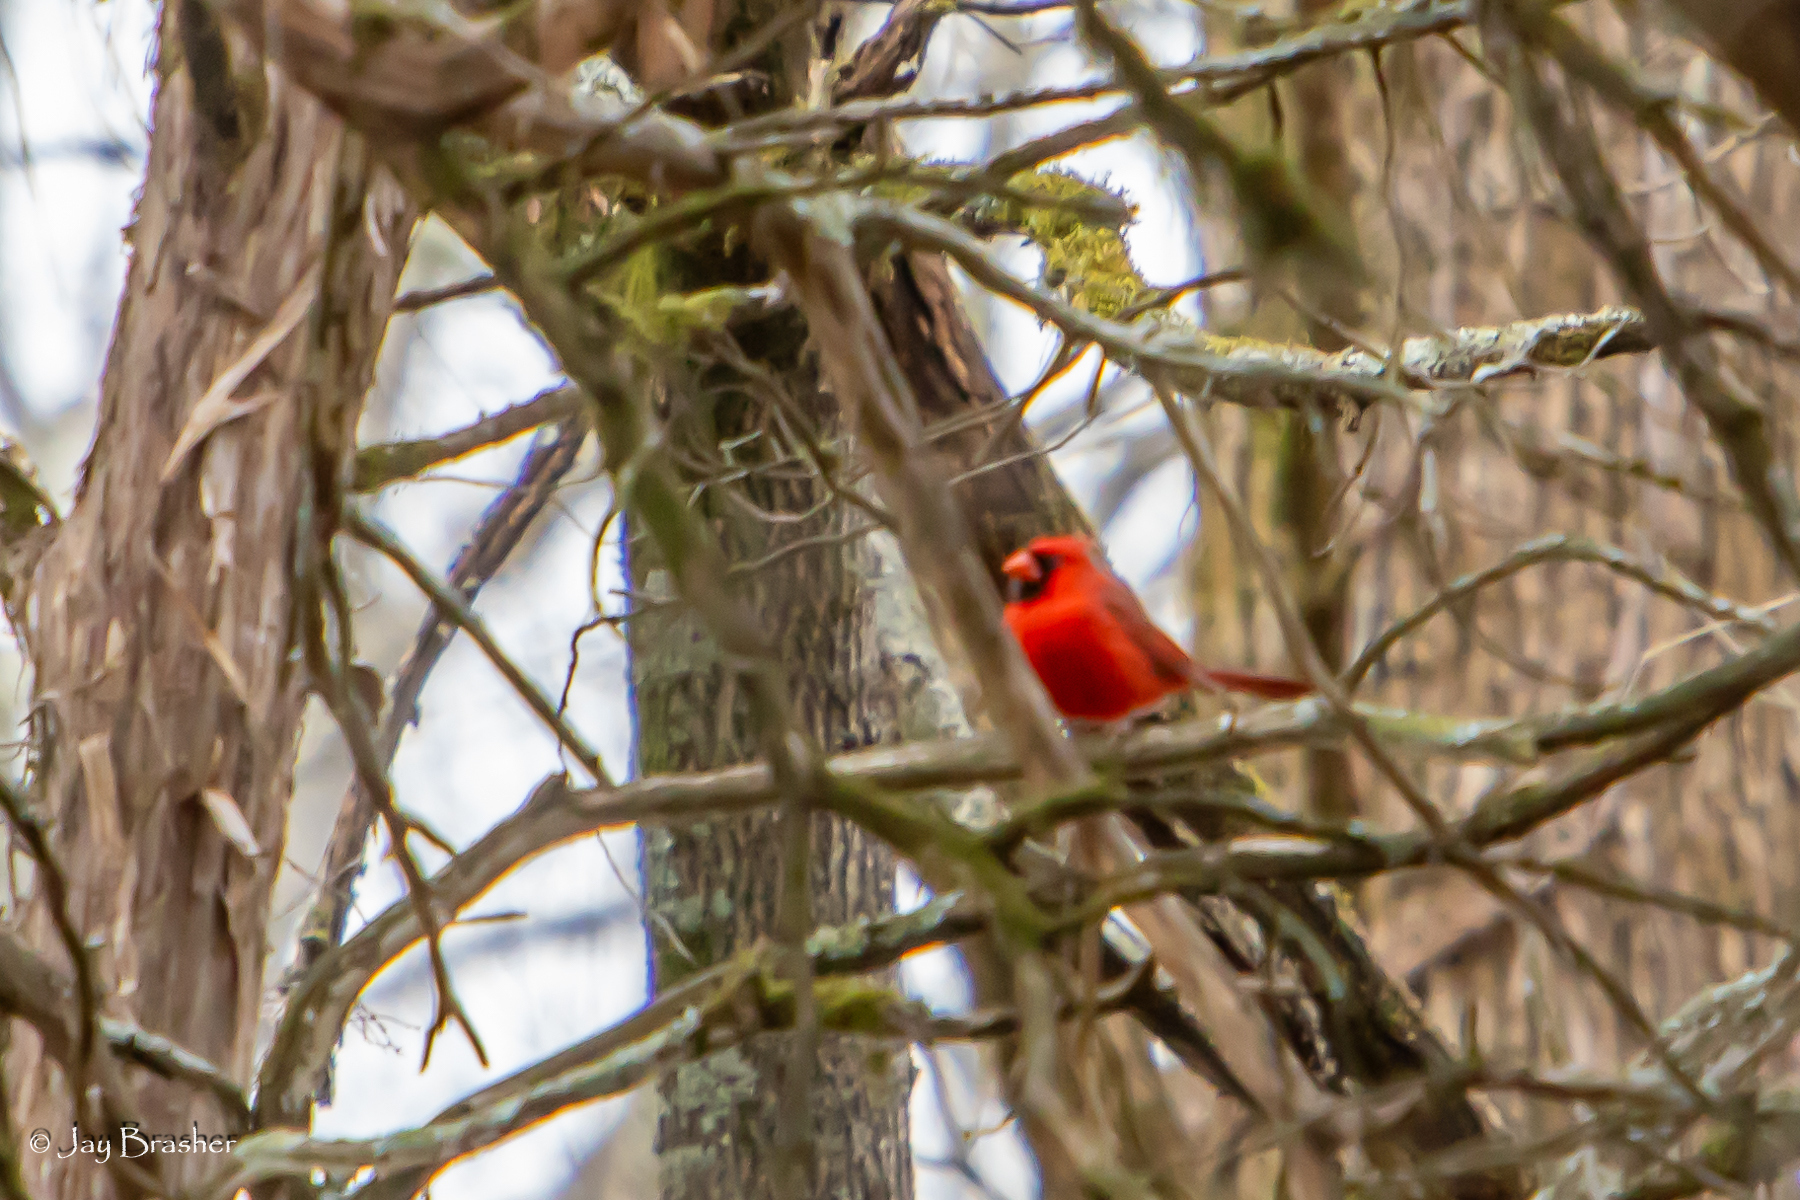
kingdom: Animalia
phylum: Chordata
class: Aves
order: Passeriformes
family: Cardinalidae
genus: Cardinalis
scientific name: Cardinalis cardinalis
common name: Northern cardinal
